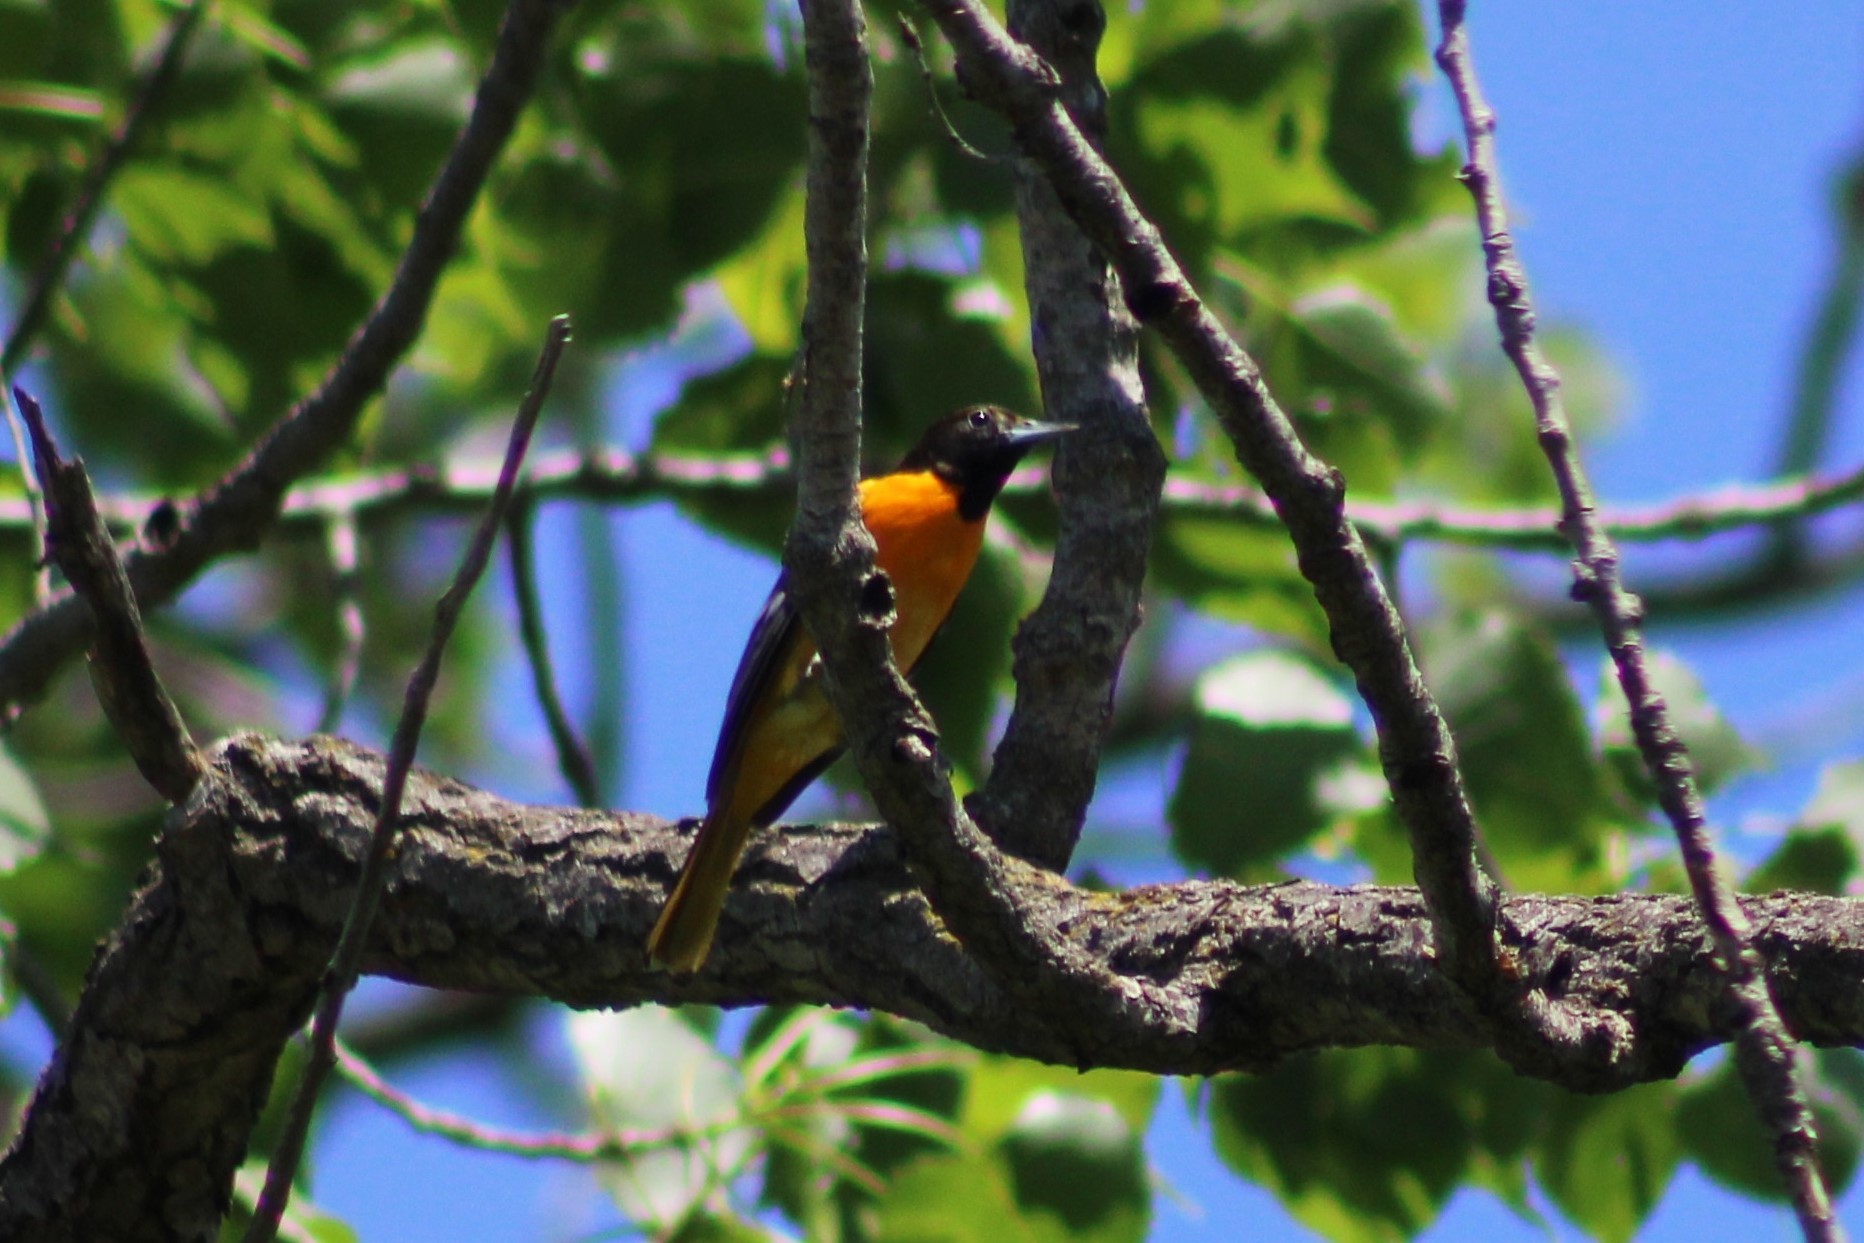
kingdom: Animalia
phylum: Chordata
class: Aves
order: Passeriformes
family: Icteridae
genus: Icterus
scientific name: Icterus galbula
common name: Baltimore oriole
